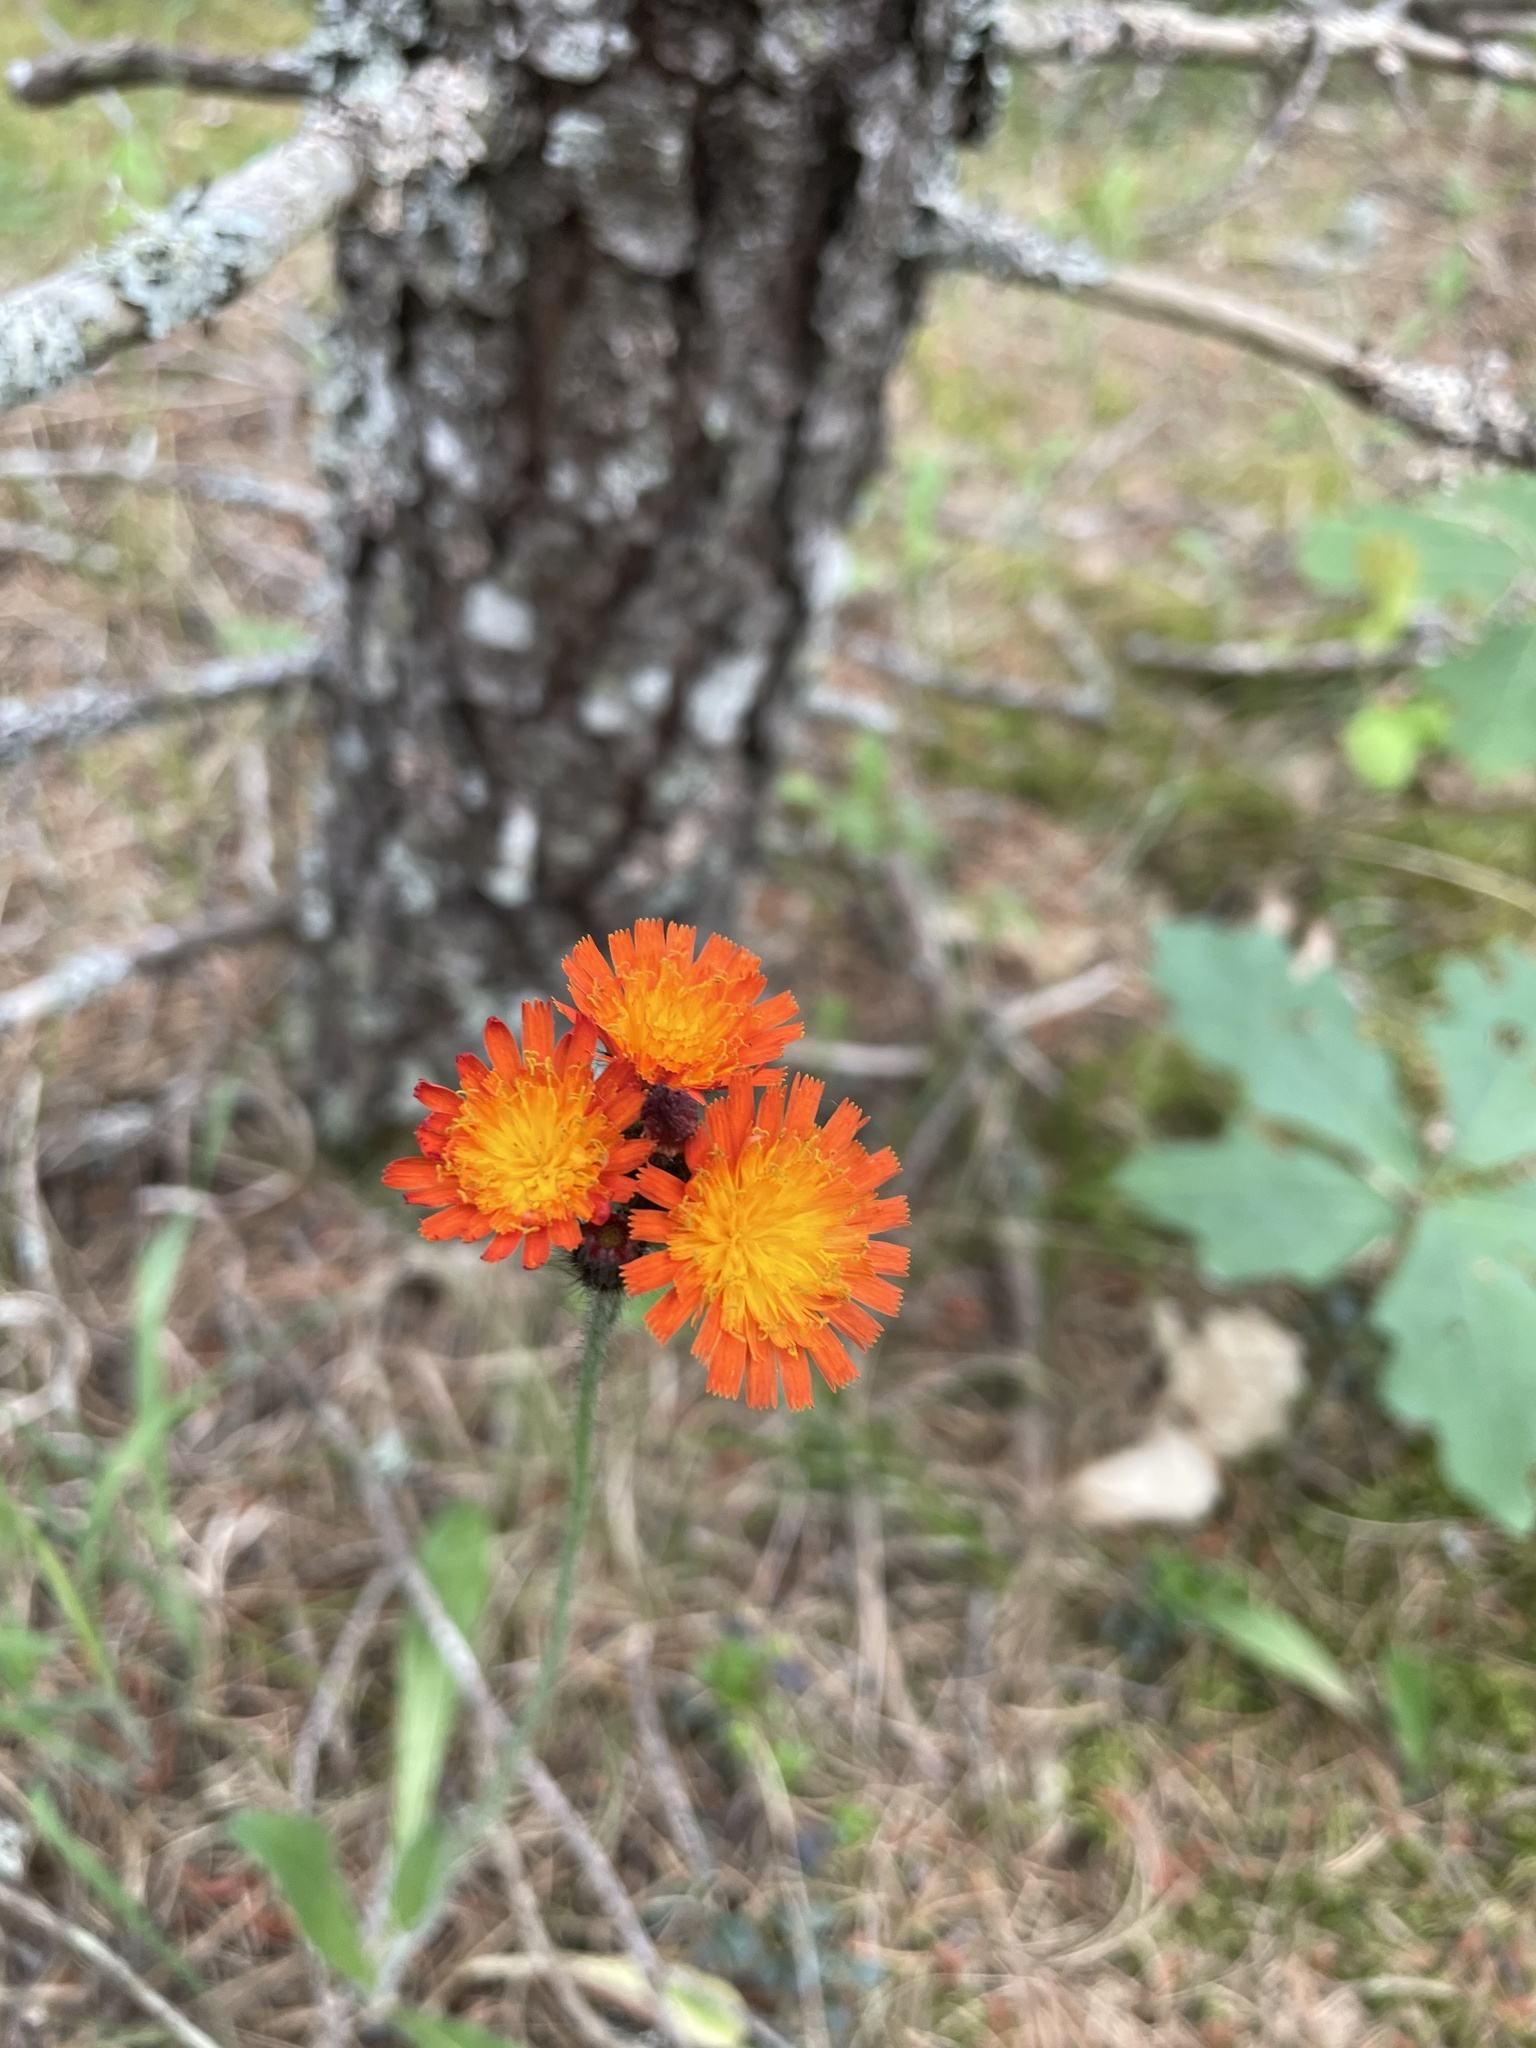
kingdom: Plantae
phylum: Tracheophyta
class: Magnoliopsida
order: Asterales
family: Asteraceae
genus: Pilosella
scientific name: Pilosella aurantiaca
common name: Fox-and-cubs
